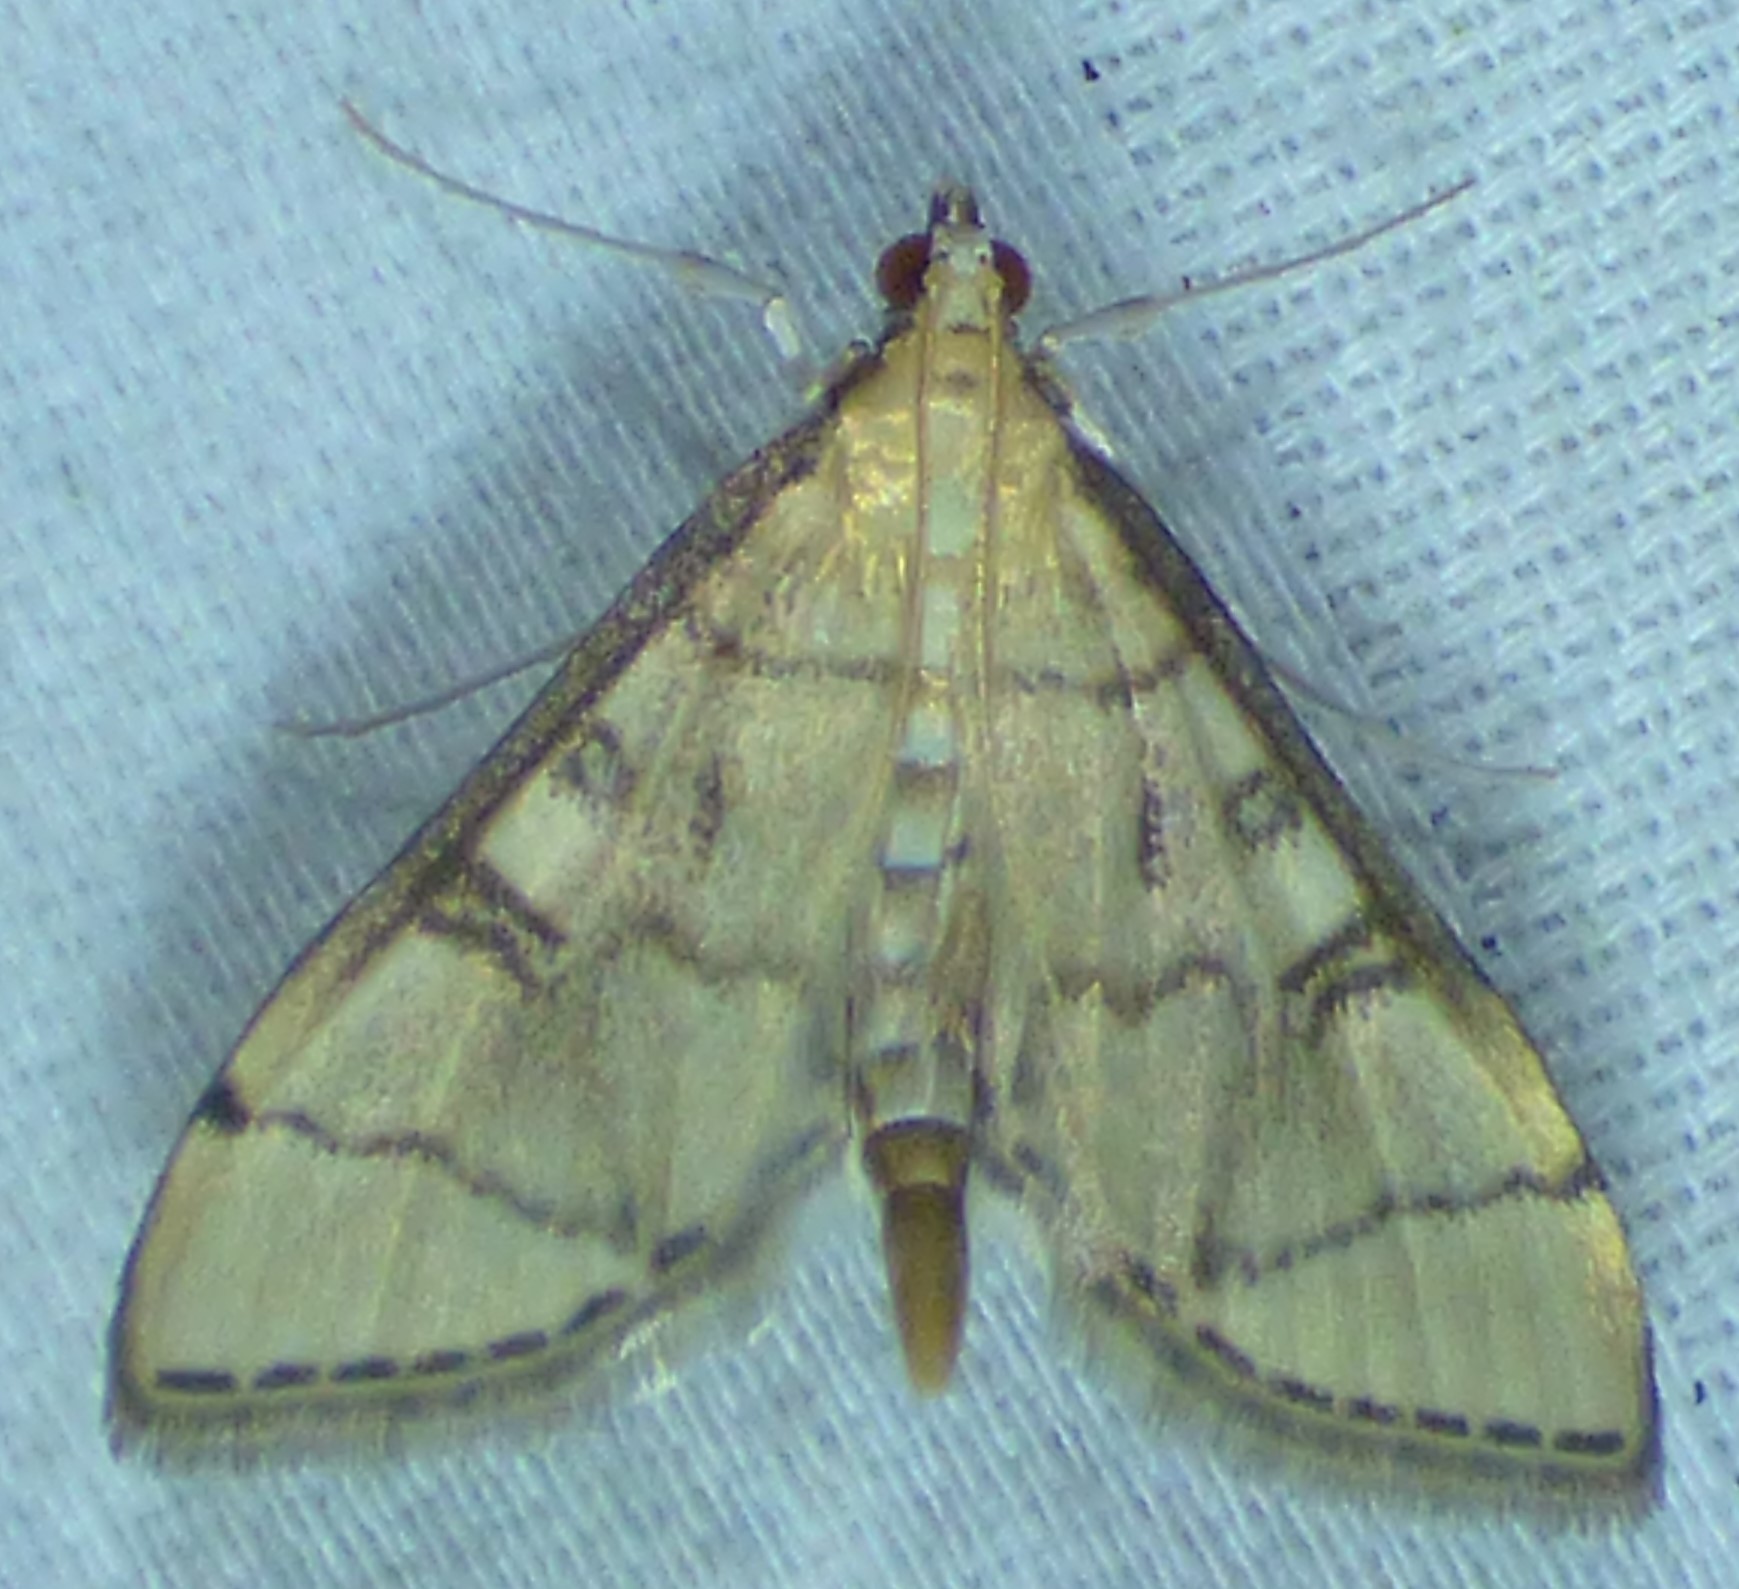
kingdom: Animalia
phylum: Arthropoda
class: Insecta
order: Lepidoptera
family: Crambidae
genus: Lamprosema
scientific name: Lamprosema Blepharomastix ranalis
